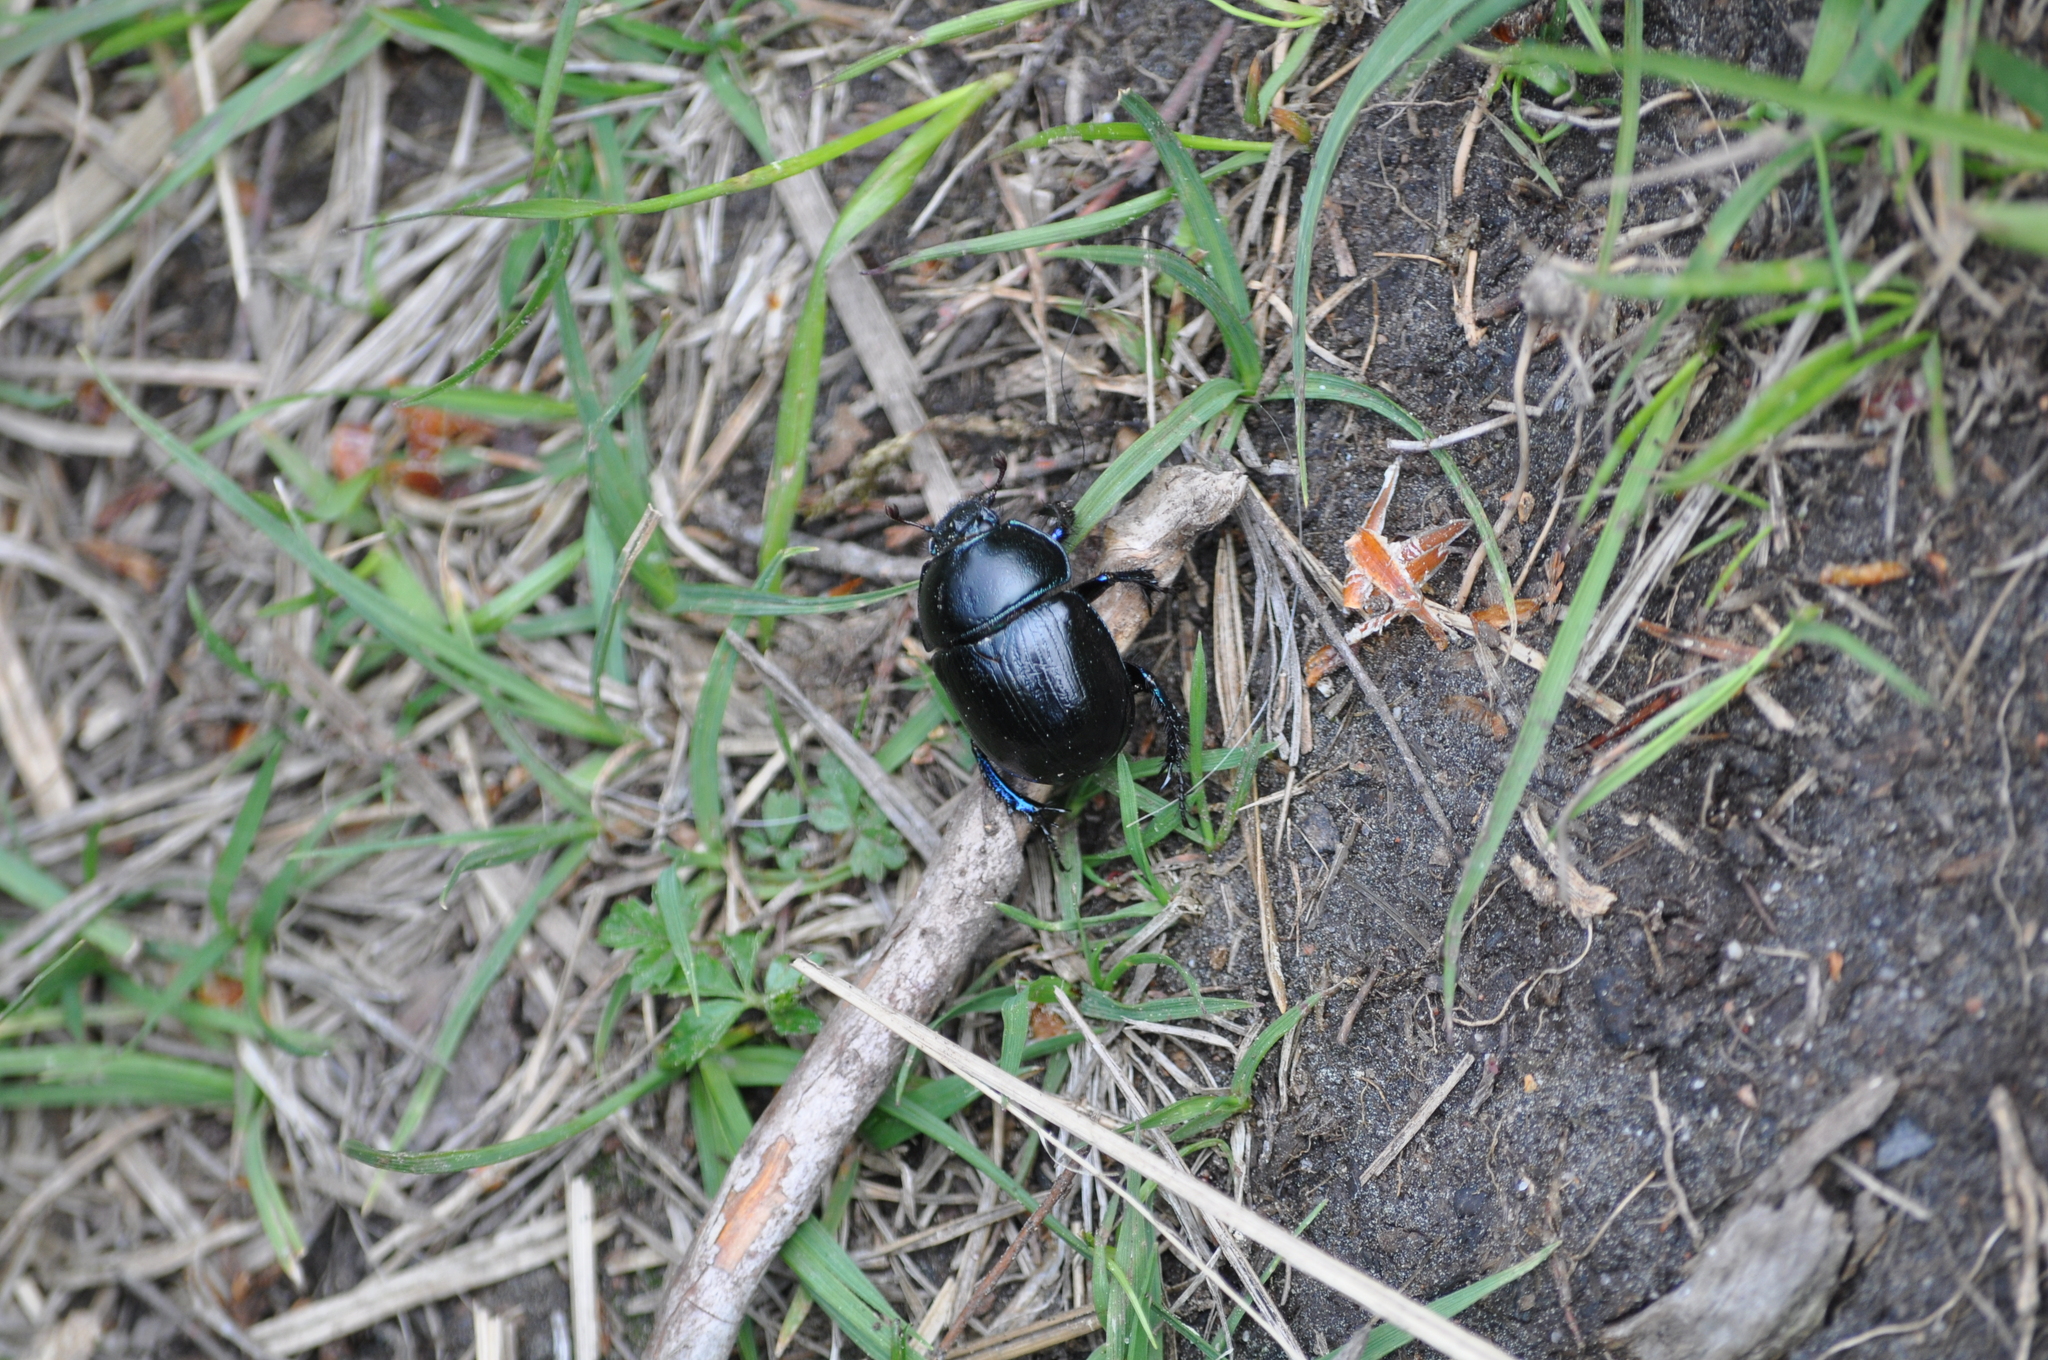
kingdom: Animalia
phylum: Arthropoda
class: Insecta
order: Coleoptera
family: Geotrupidae
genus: Anoplotrupes
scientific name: Anoplotrupes stercorosus
